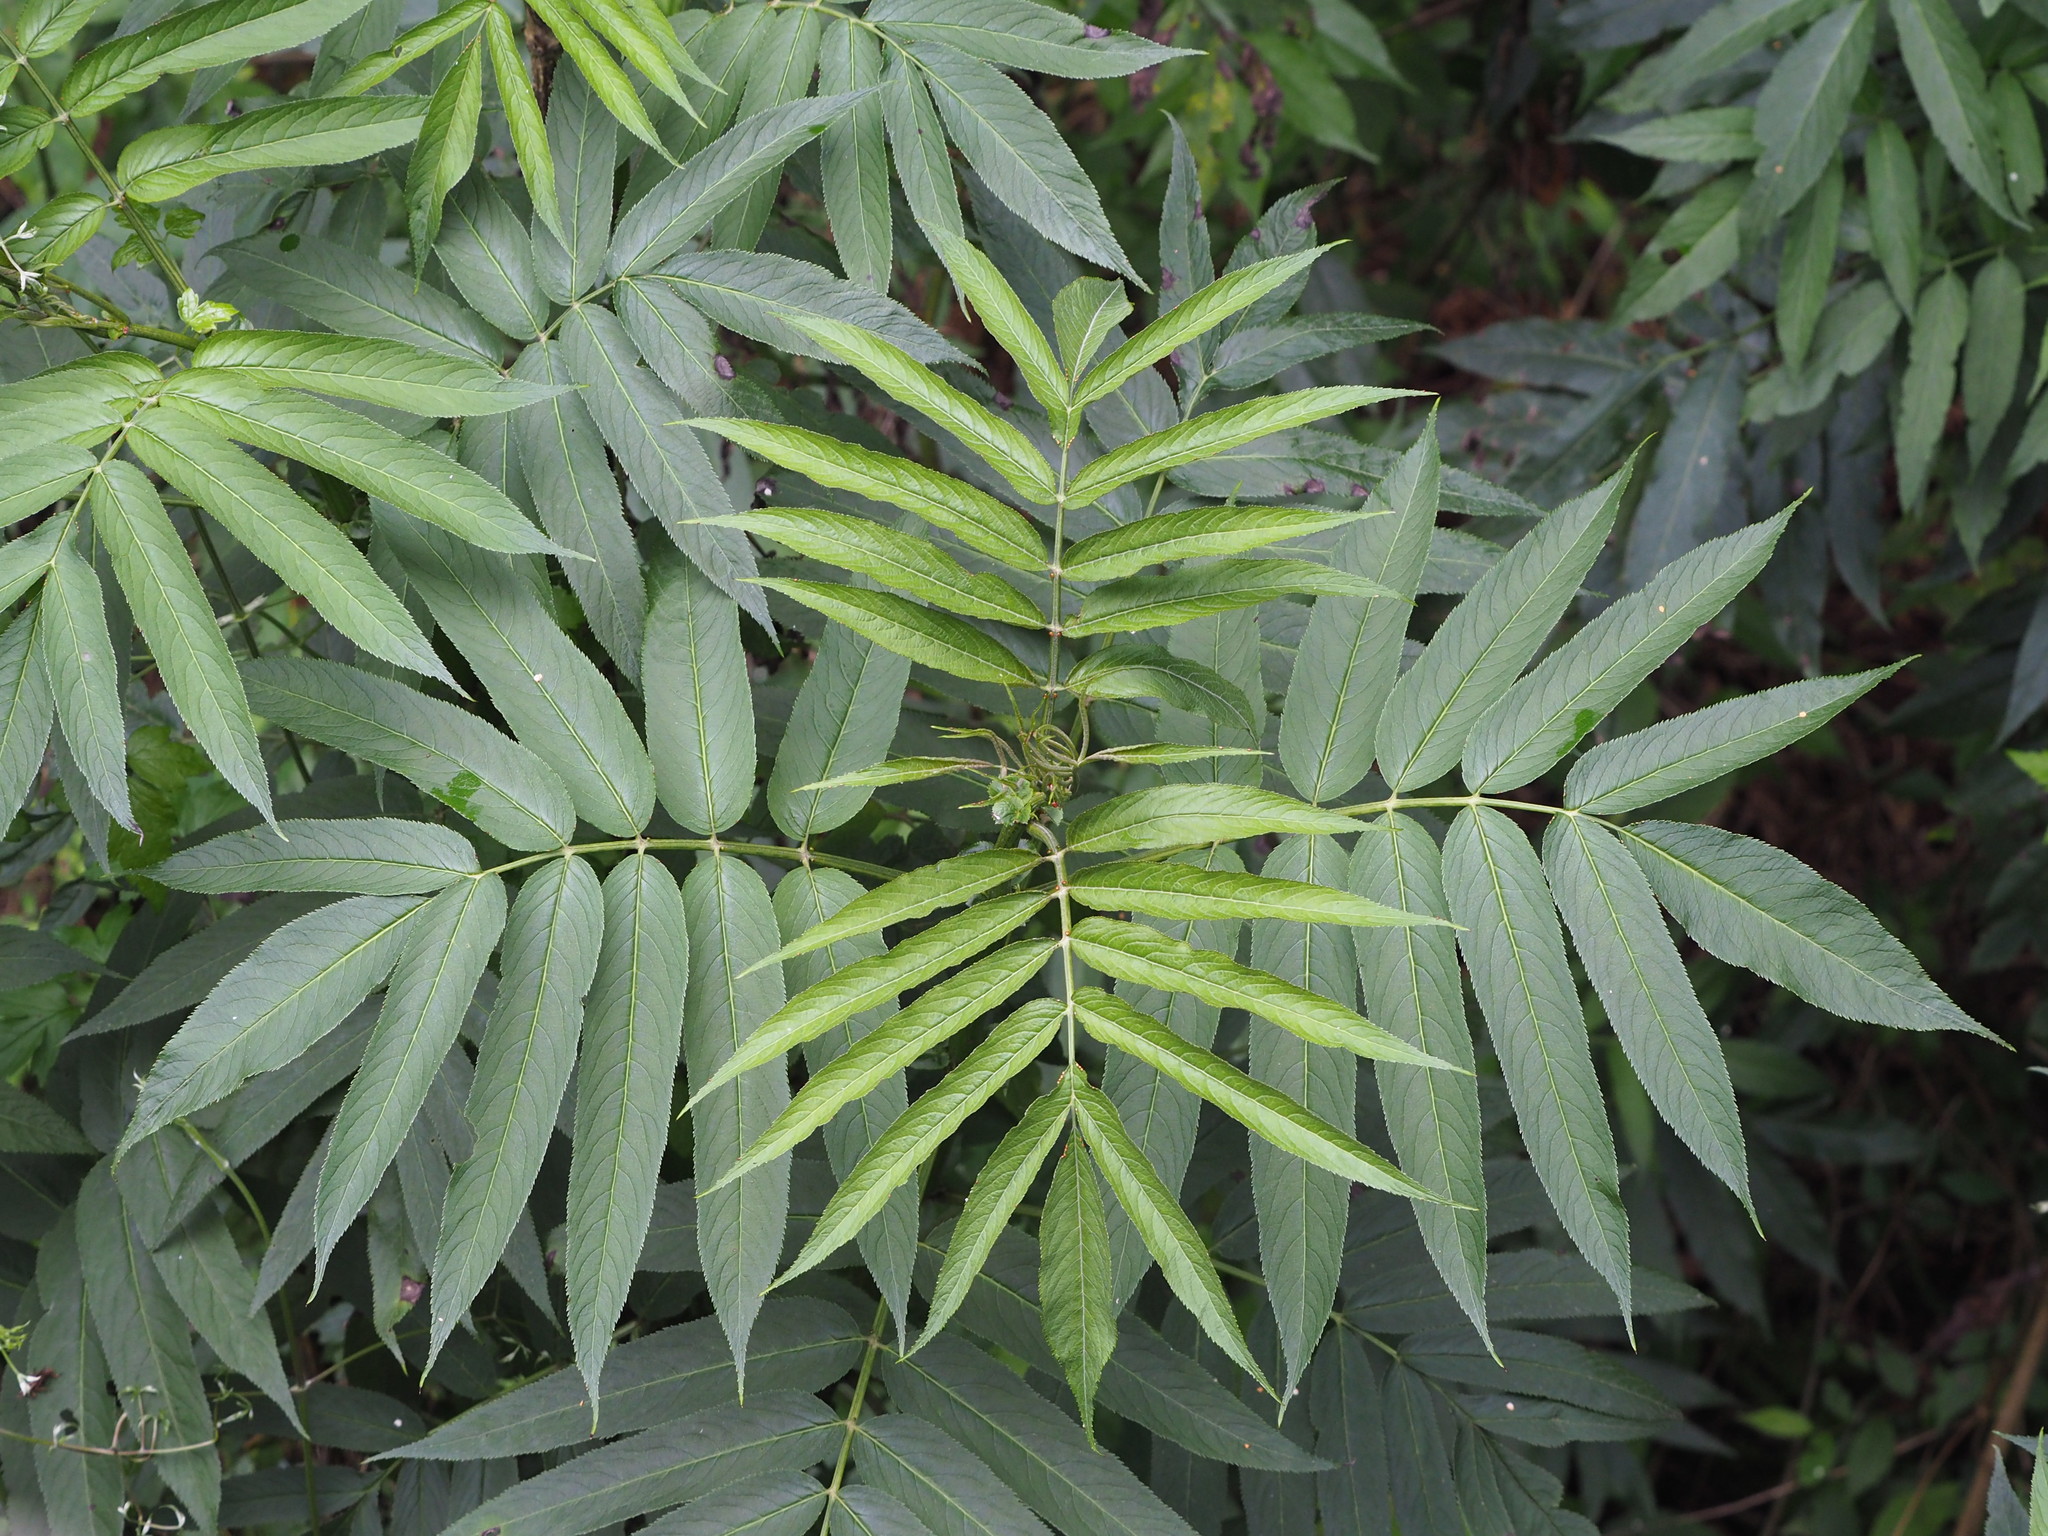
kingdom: Plantae
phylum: Tracheophyta
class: Magnoliopsida
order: Dipsacales
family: Viburnaceae
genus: Sambucus
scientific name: Sambucus javanica
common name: Chinese elder
